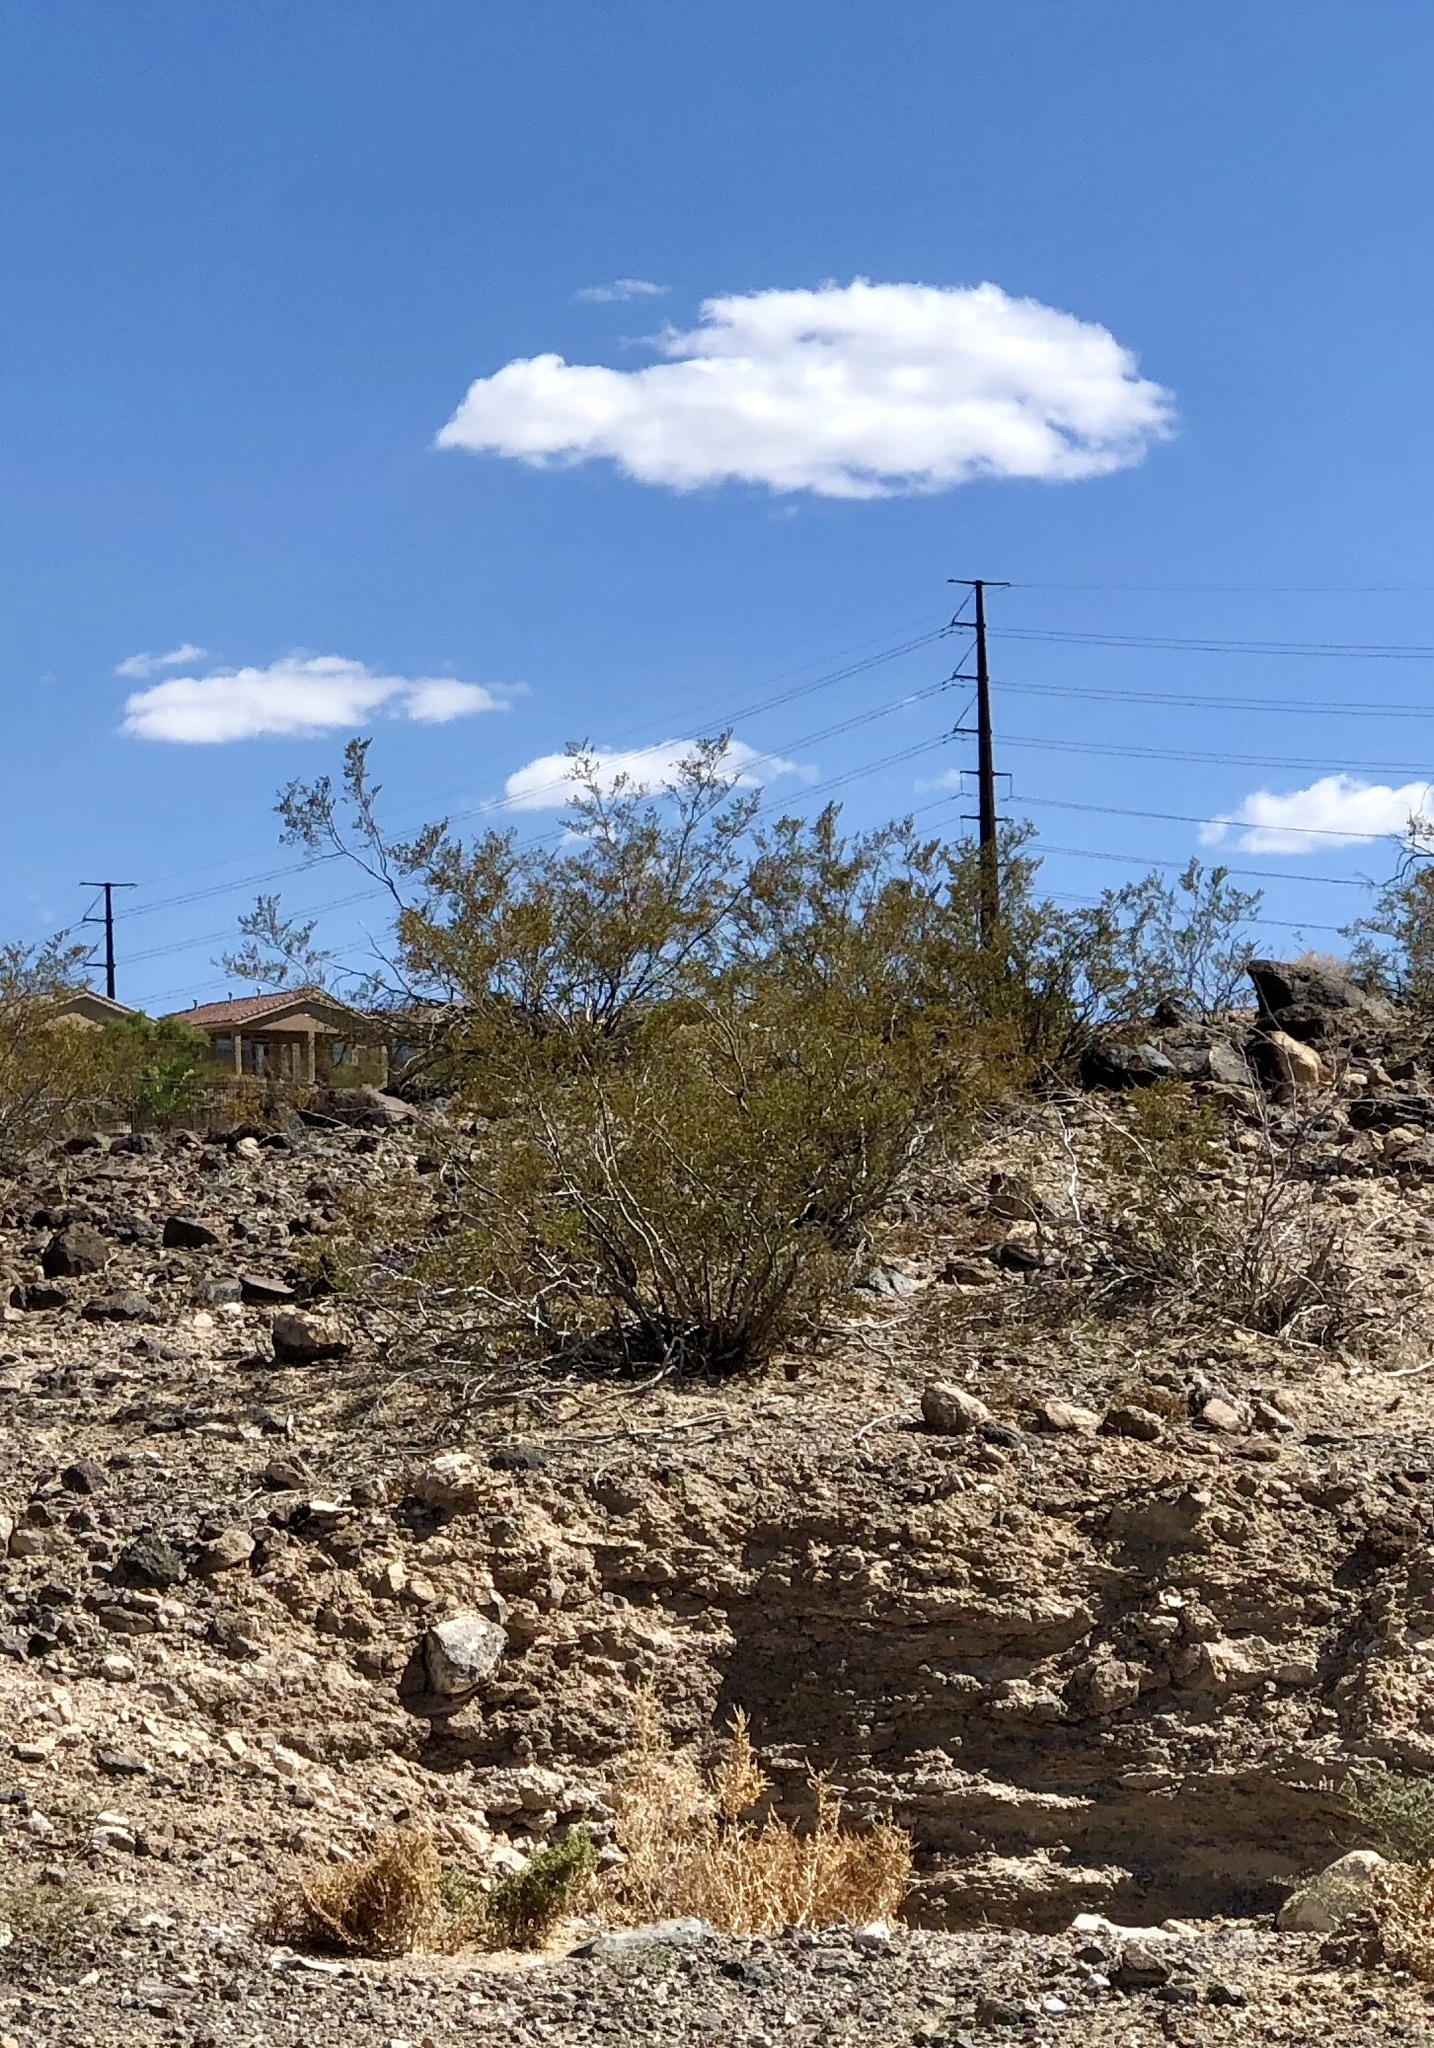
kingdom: Plantae
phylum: Tracheophyta
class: Magnoliopsida
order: Zygophyllales
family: Zygophyllaceae
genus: Larrea
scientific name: Larrea tridentata
